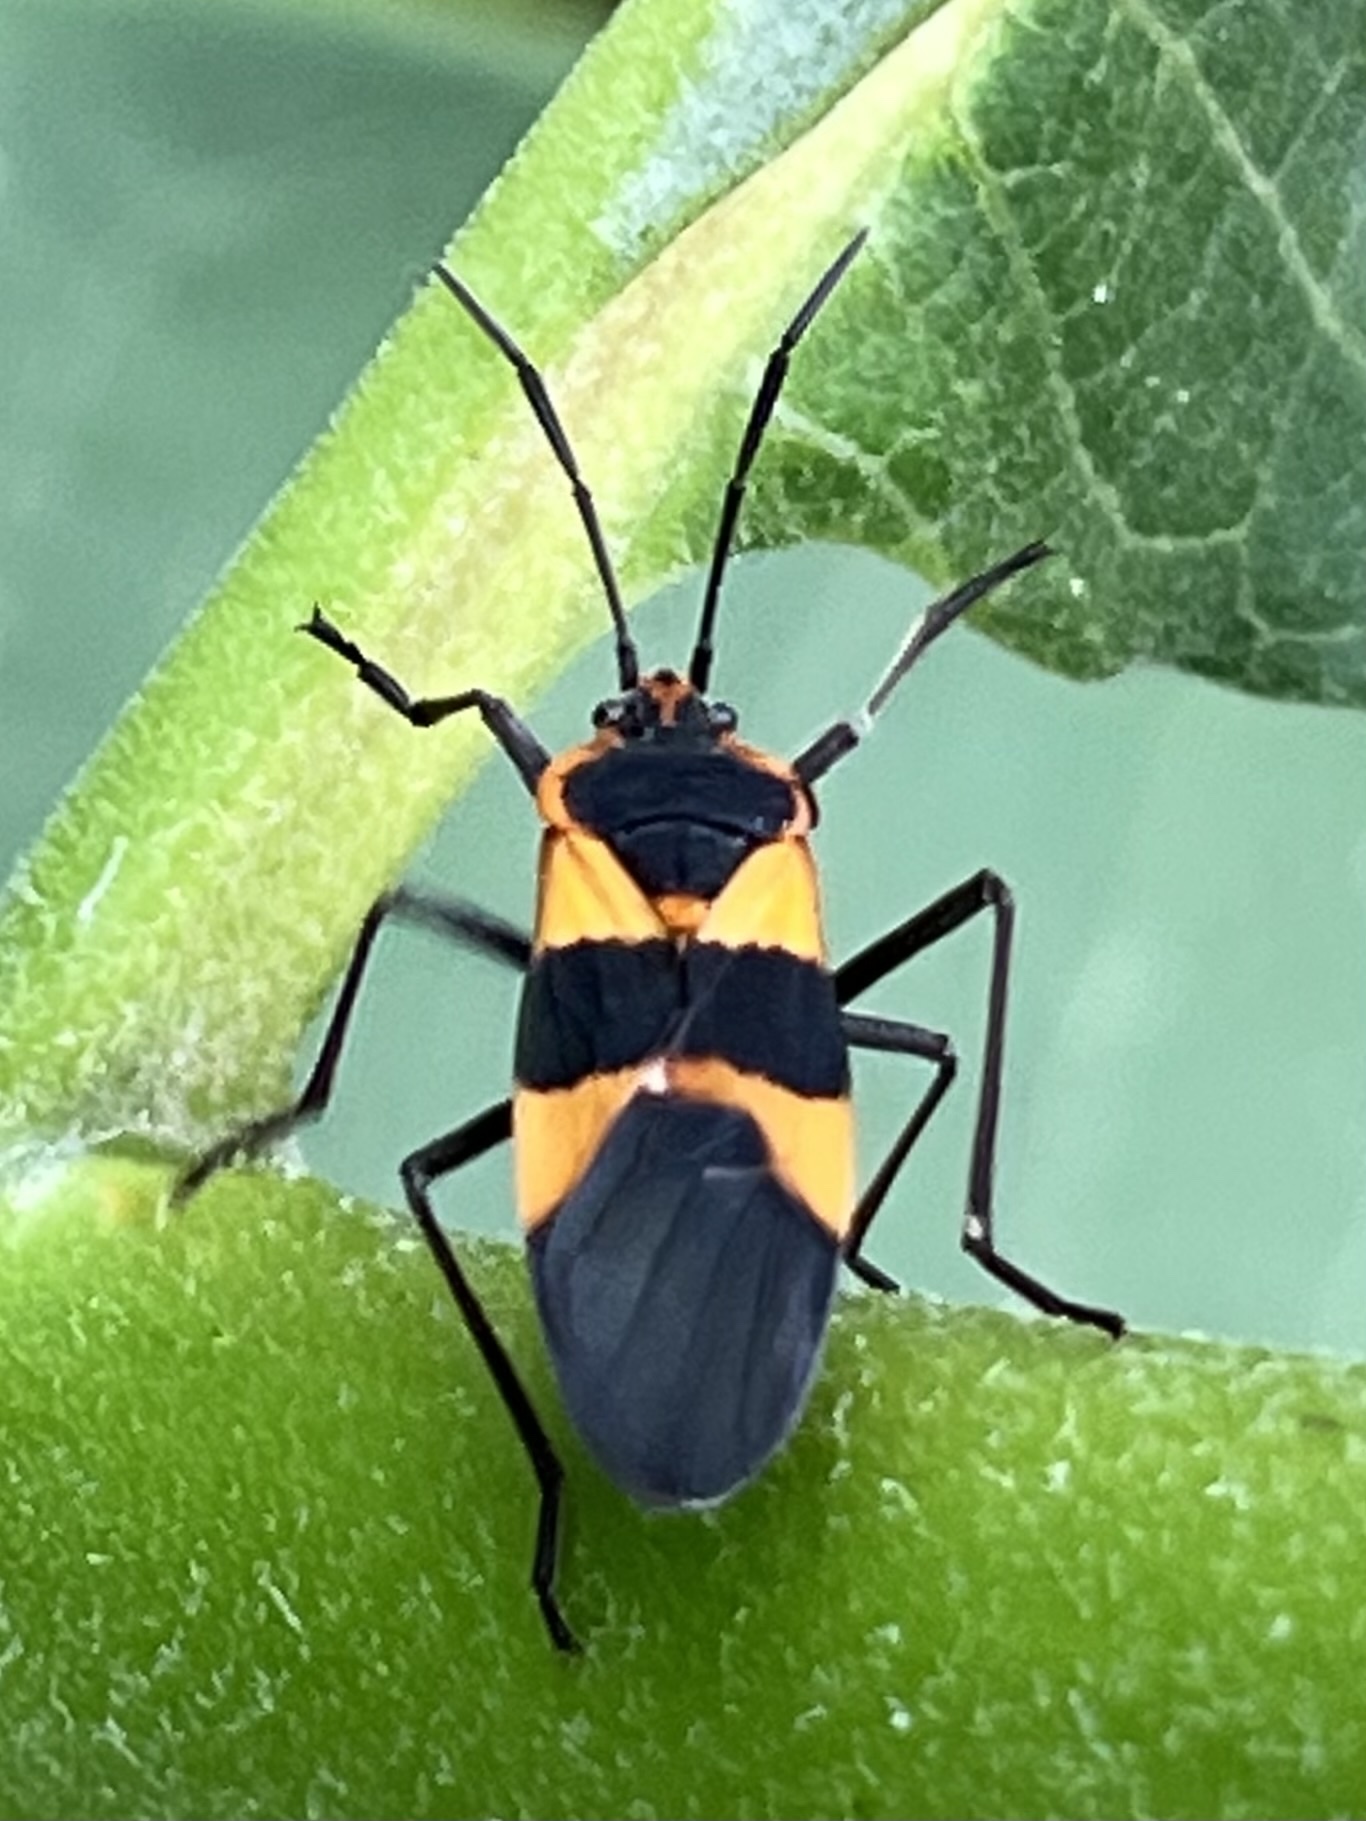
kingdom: Animalia
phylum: Arthropoda
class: Insecta
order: Hemiptera
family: Lygaeidae
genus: Oncopeltus
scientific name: Oncopeltus fasciatus
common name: Large milkweed bug
